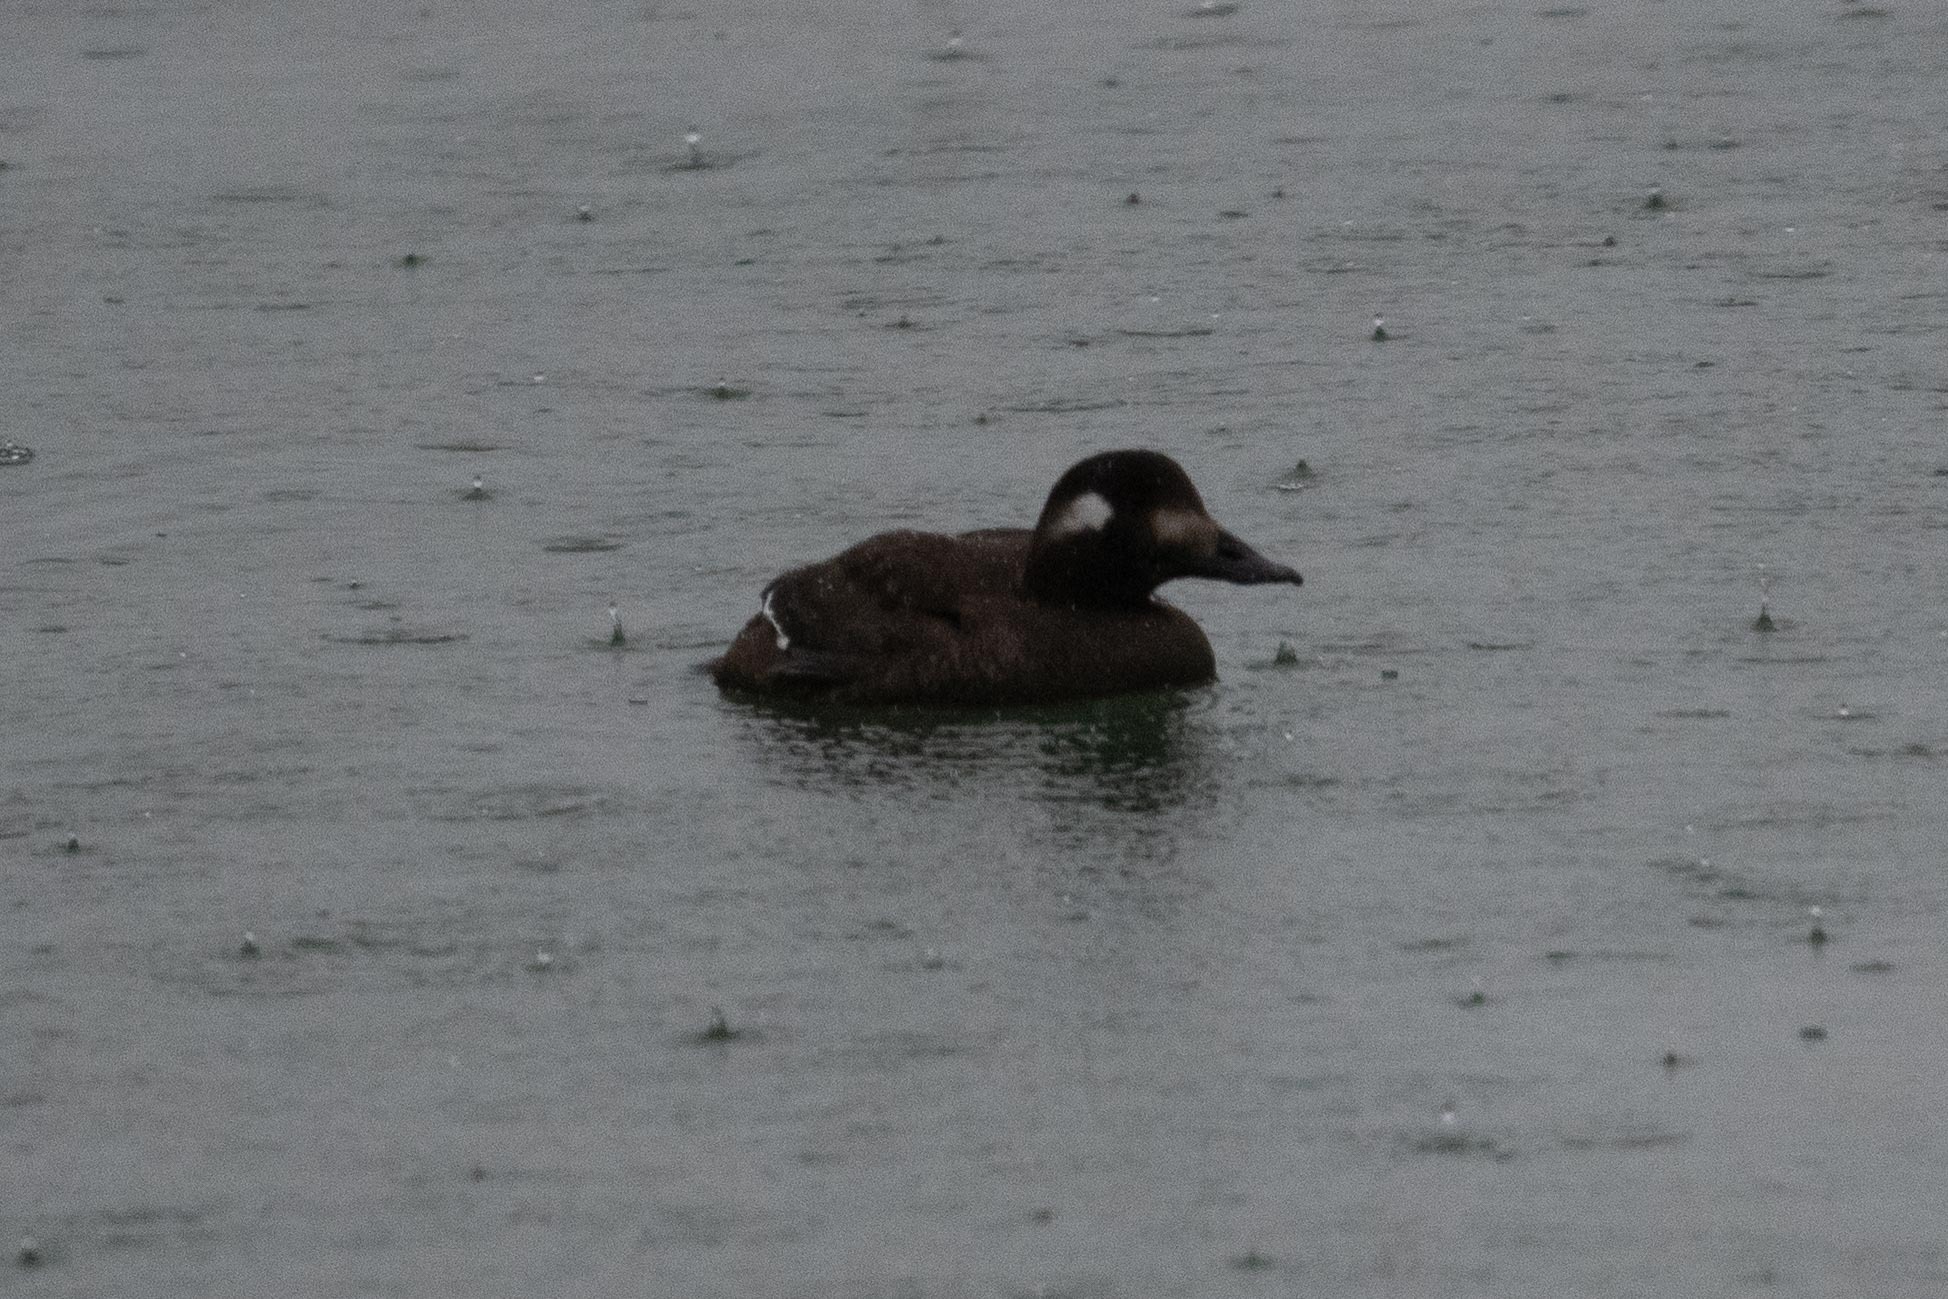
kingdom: Animalia
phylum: Chordata
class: Aves
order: Anseriformes
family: Anatidae
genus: Melanitta
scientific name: Melanitta deglandi
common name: White-winged scoter
